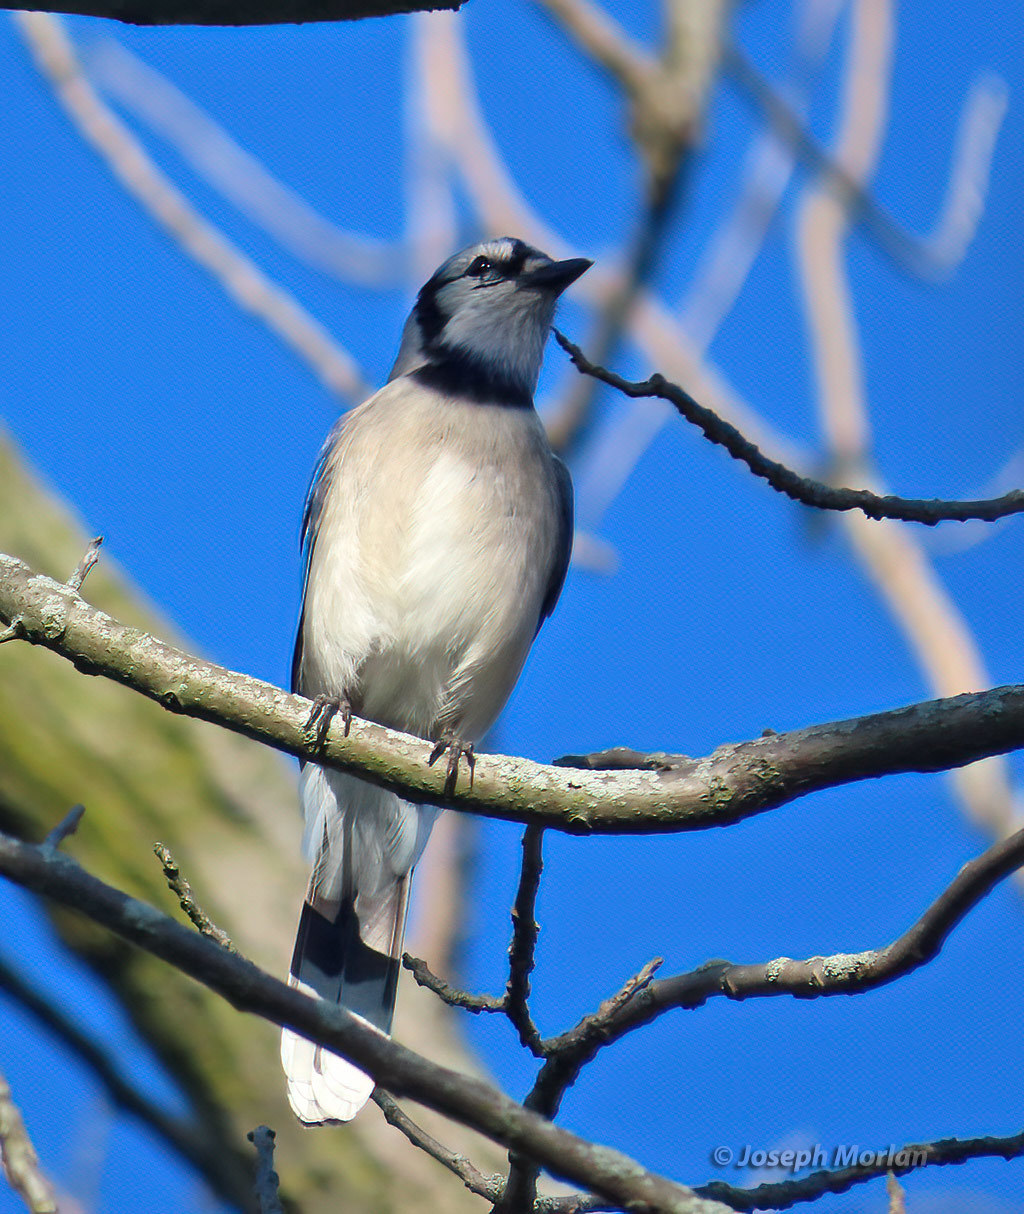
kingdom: Animalia
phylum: Chordata
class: Aves
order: Passeriformes
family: Corvidae
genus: Cyanocitta
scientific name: Cyanocitta cristata
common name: Blue jay
